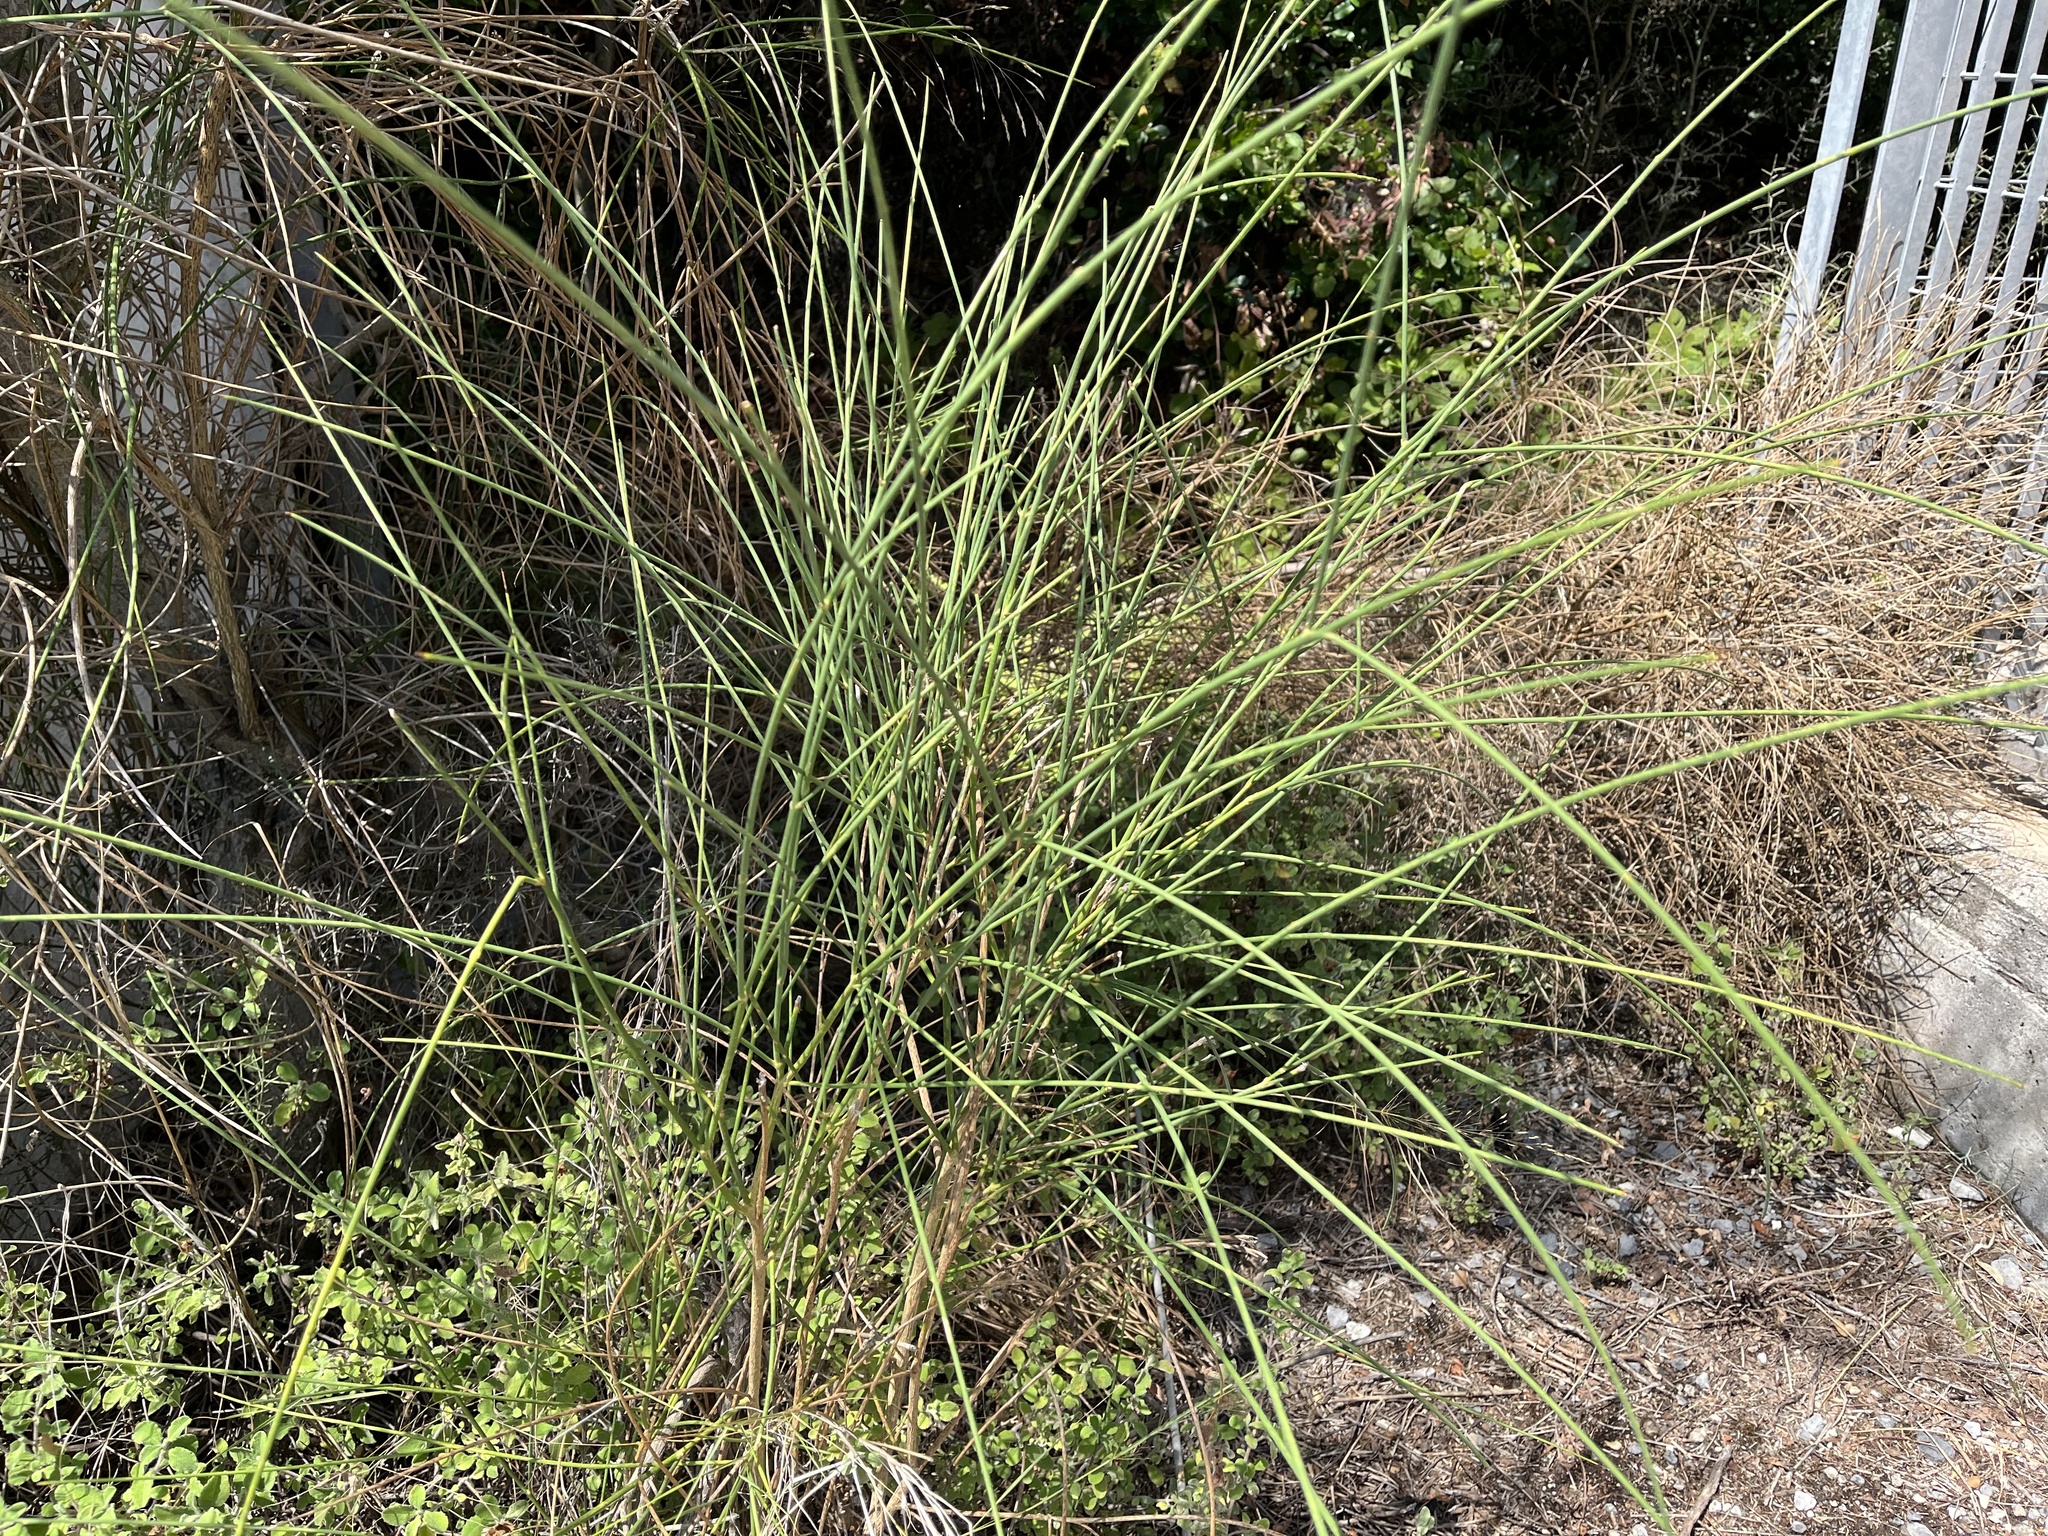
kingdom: Plantae
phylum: Tracheophyta
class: Magnoliopsida
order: Fabales
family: Fabaceae
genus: Spartium
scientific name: Spartium junceum
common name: Spanish broom
